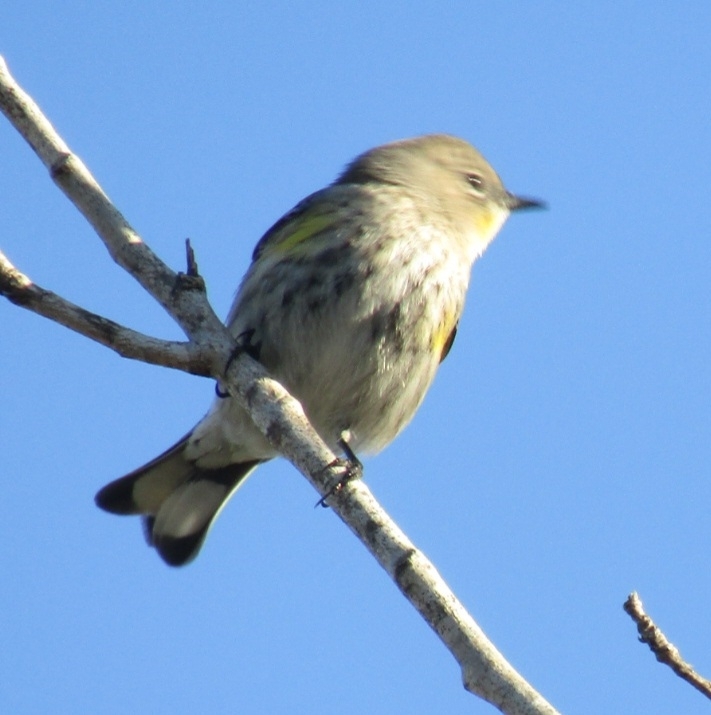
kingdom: Animalia
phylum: Chordata
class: Aves
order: Passeriformes
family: Parulidae
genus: Setophaga
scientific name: Setophaga coronata
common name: Myrtle warbler
